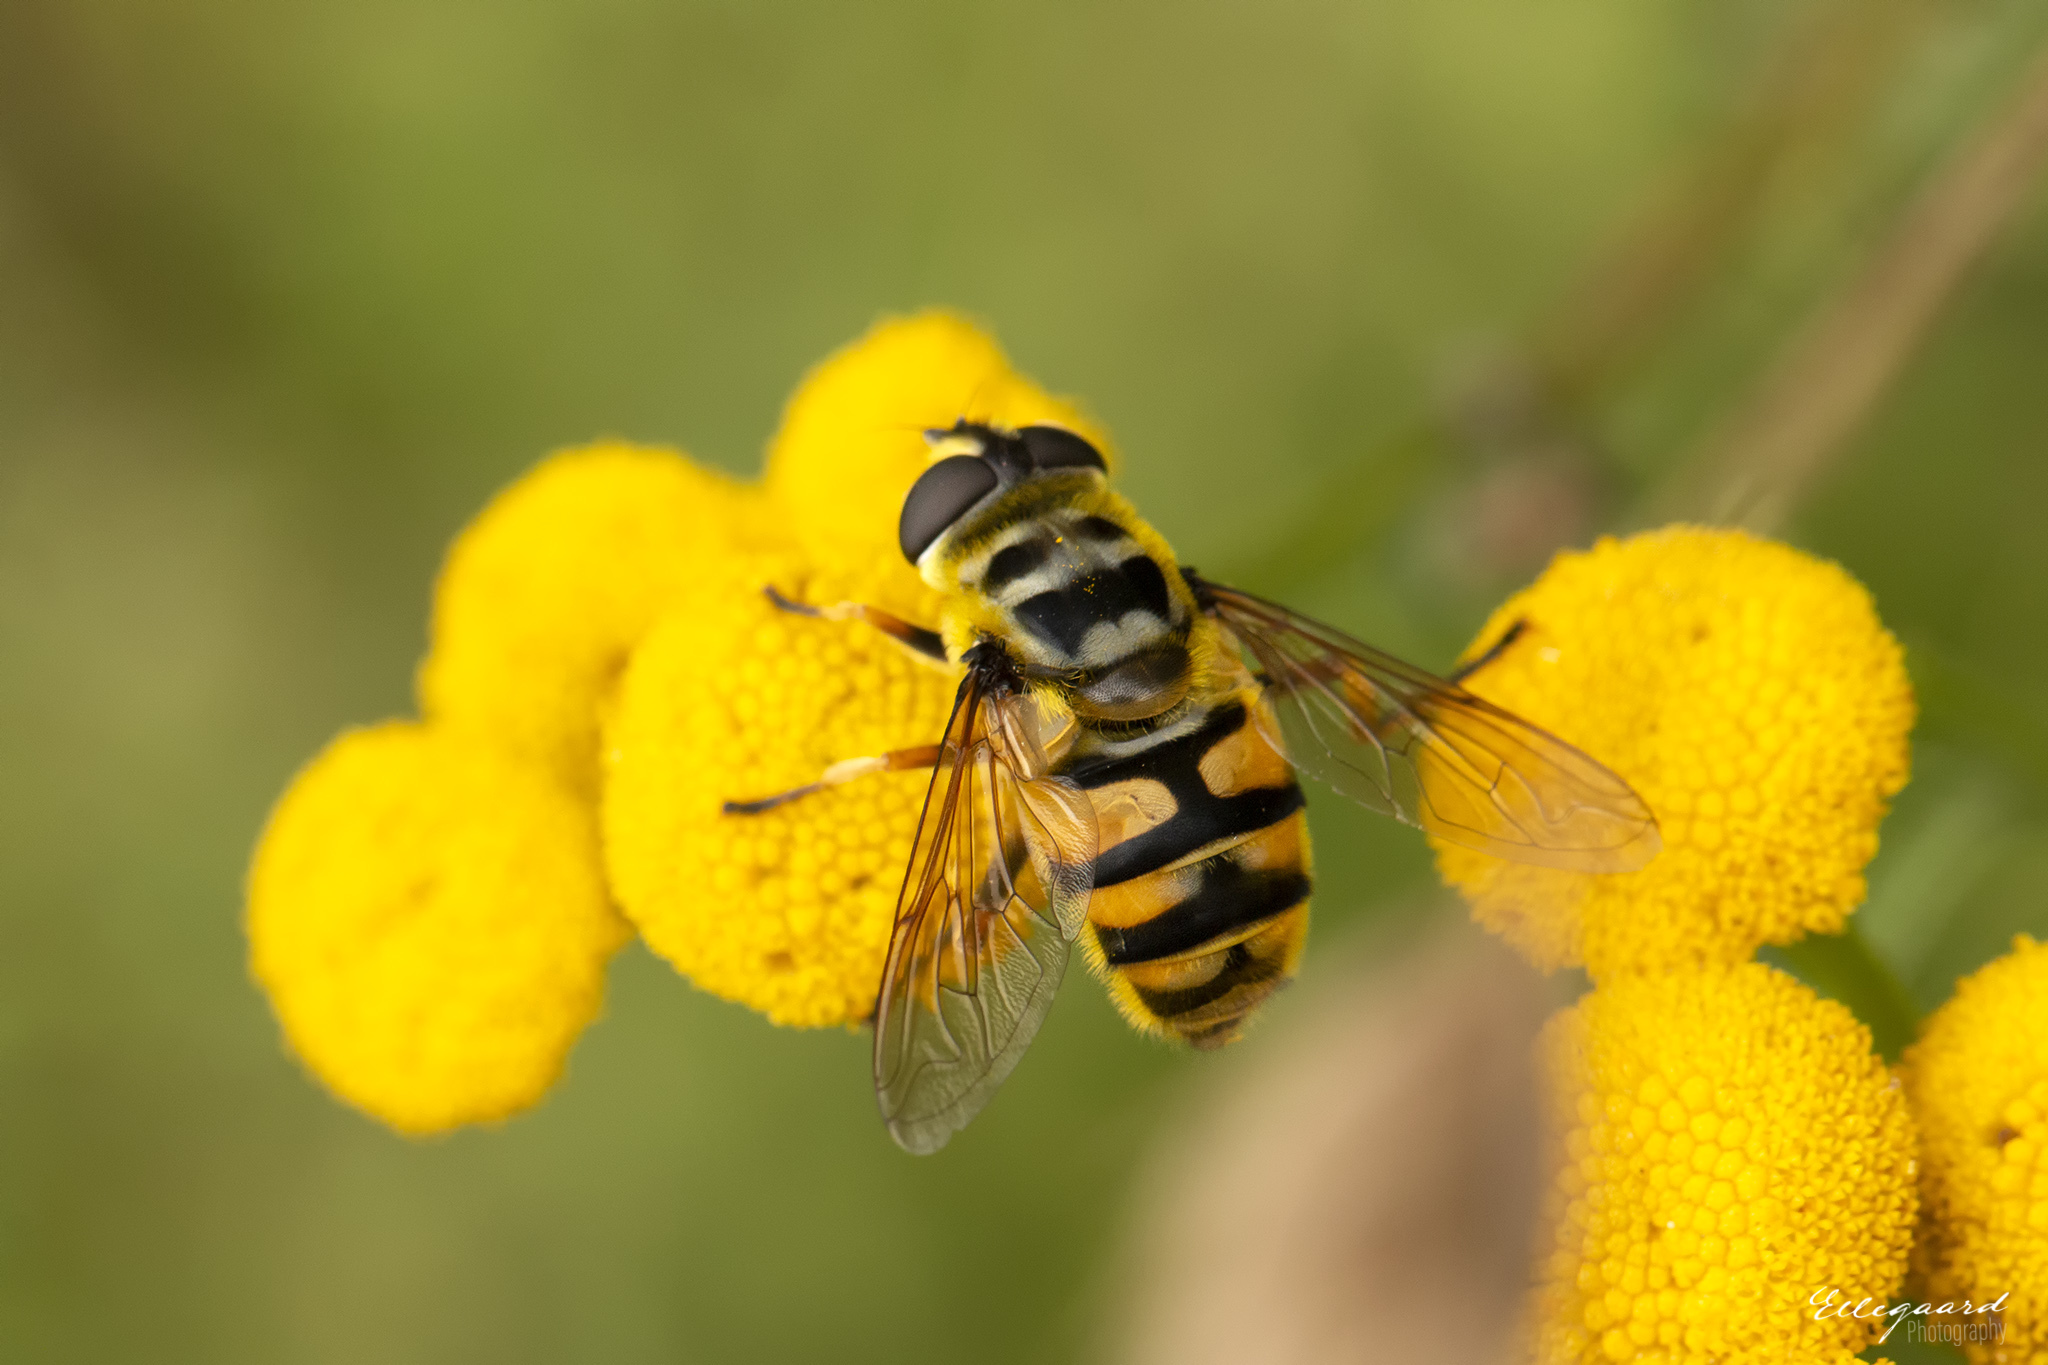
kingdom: Animalia
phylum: Arthropoda
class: Insecta
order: Diptera
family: Syrphidae
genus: Myathropa
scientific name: Myathropa florea
